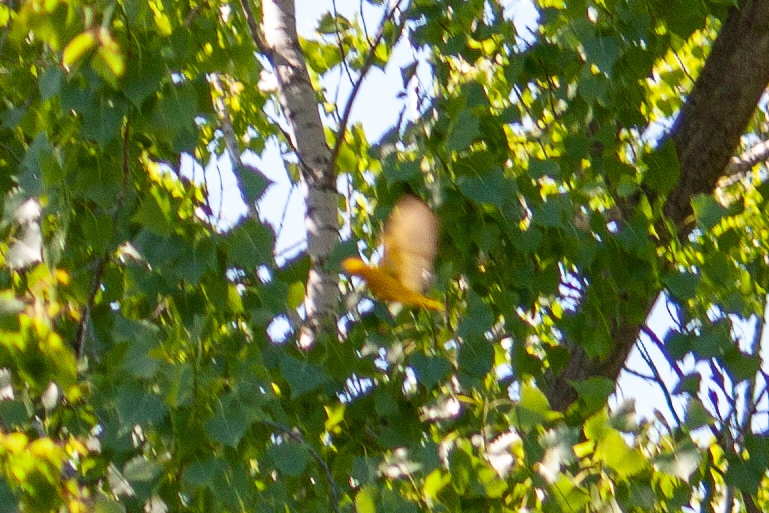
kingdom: Animalia
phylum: Chordata
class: Aves
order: Passeriformes
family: Parulidae
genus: Setophaga
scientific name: Setophaga petechia
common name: Yellow warbler
